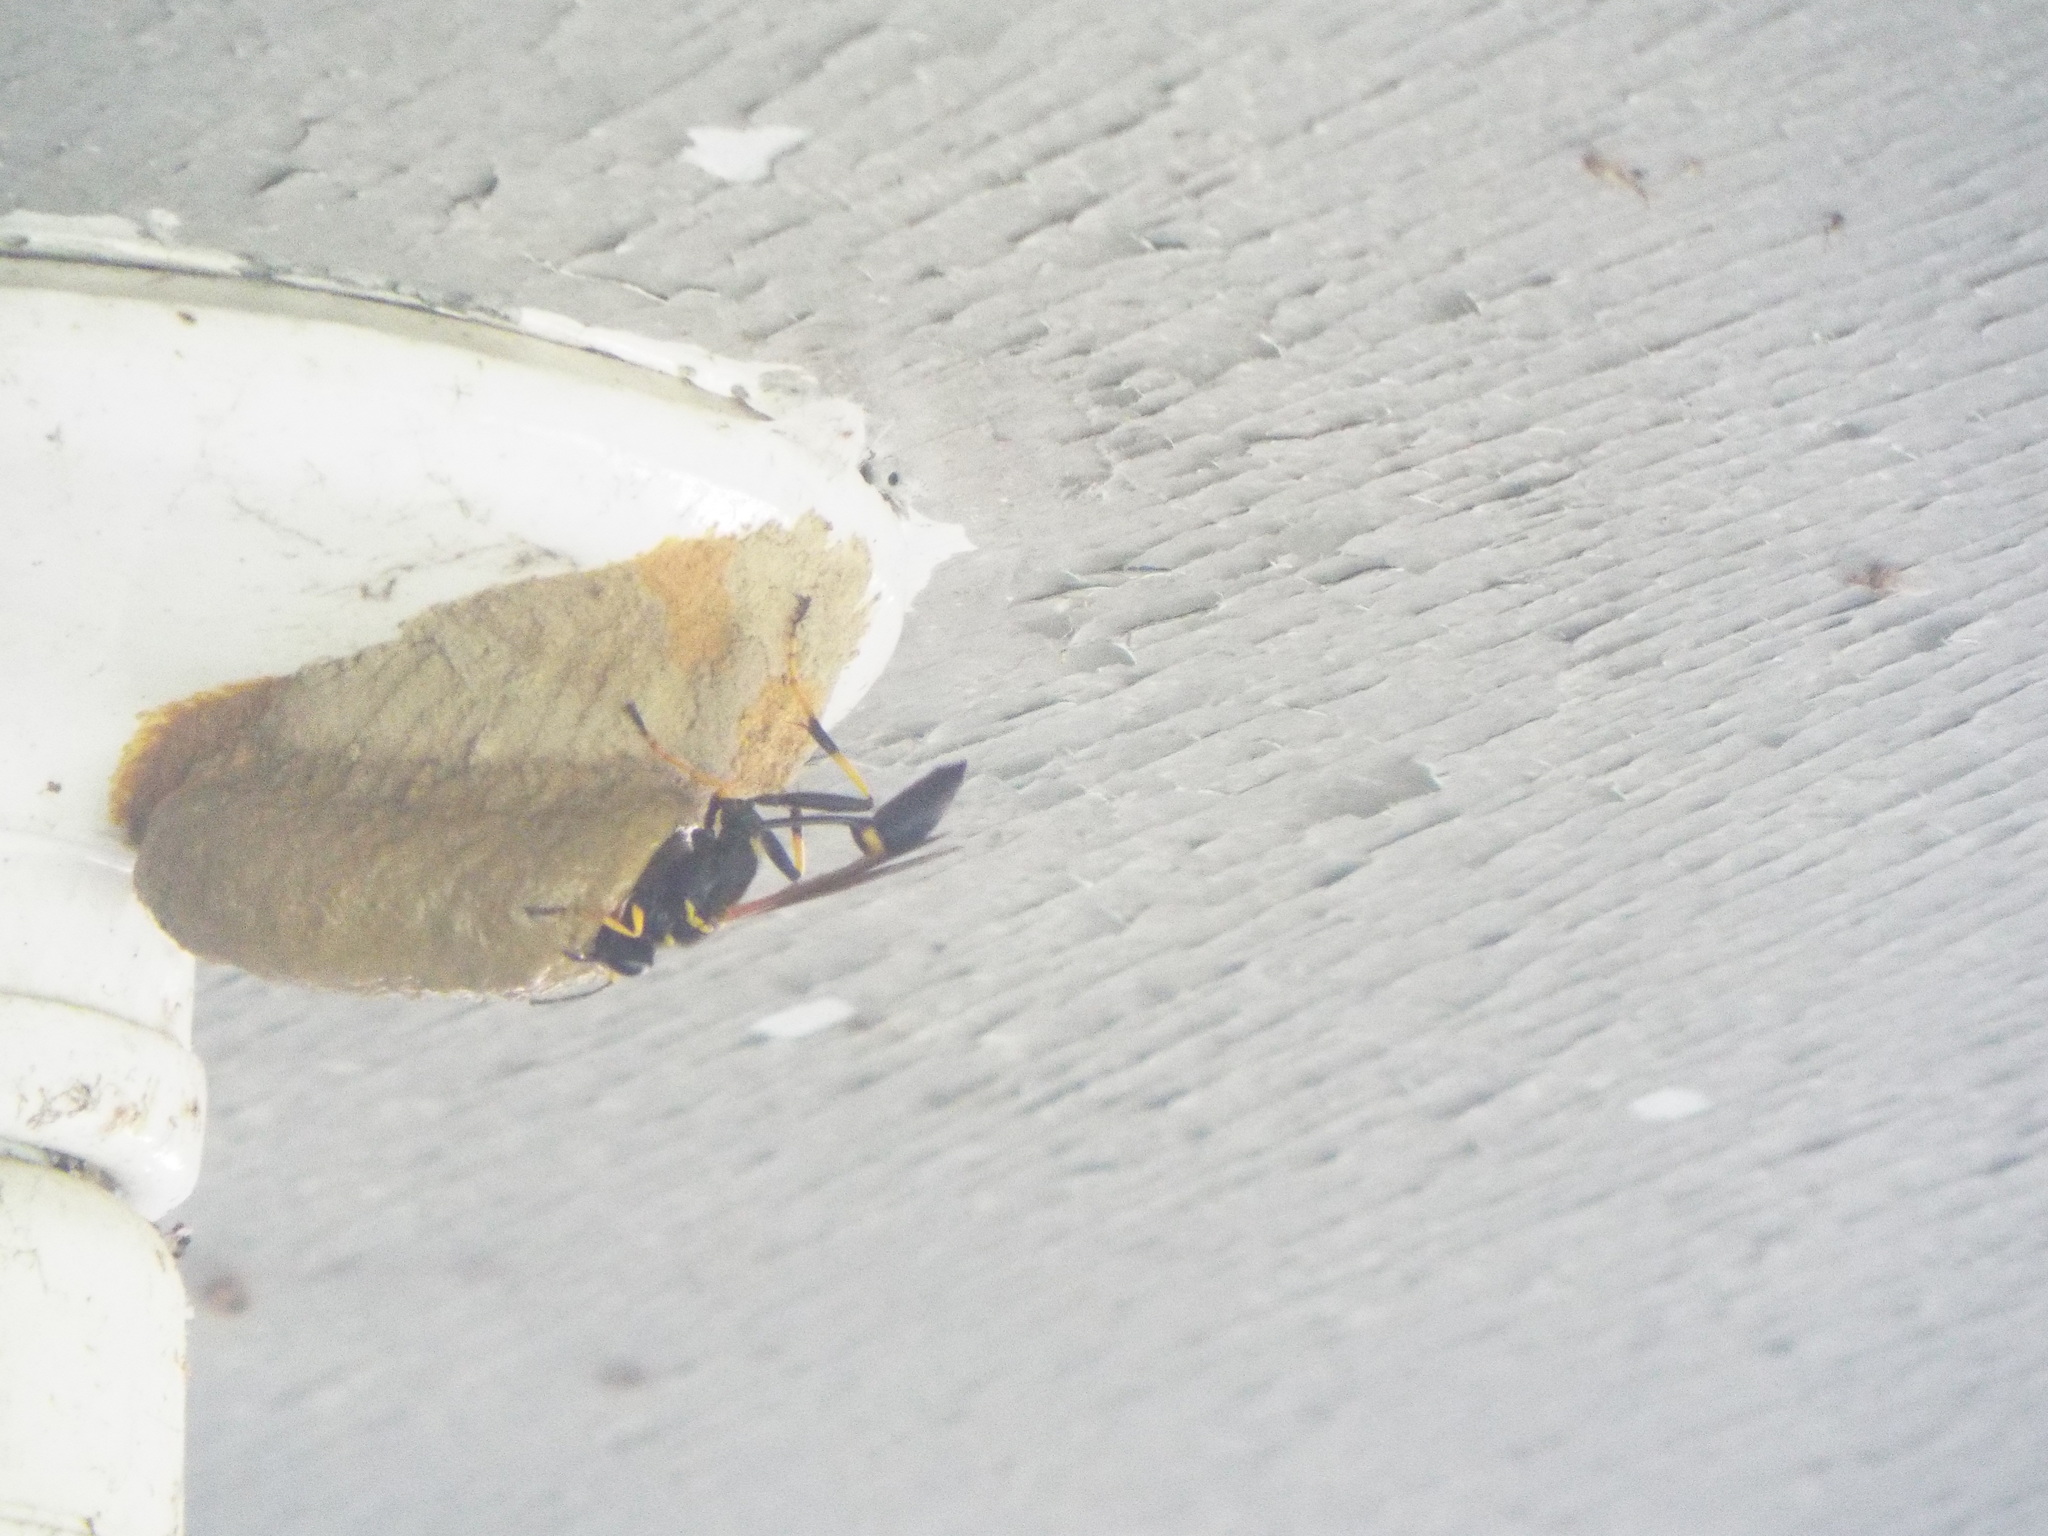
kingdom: Animalia
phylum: Arthropoda
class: Insecta
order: Hymenoptera
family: Sphecidae
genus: Sceliphron
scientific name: Sceliphron caementarium
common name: Mud dauber
